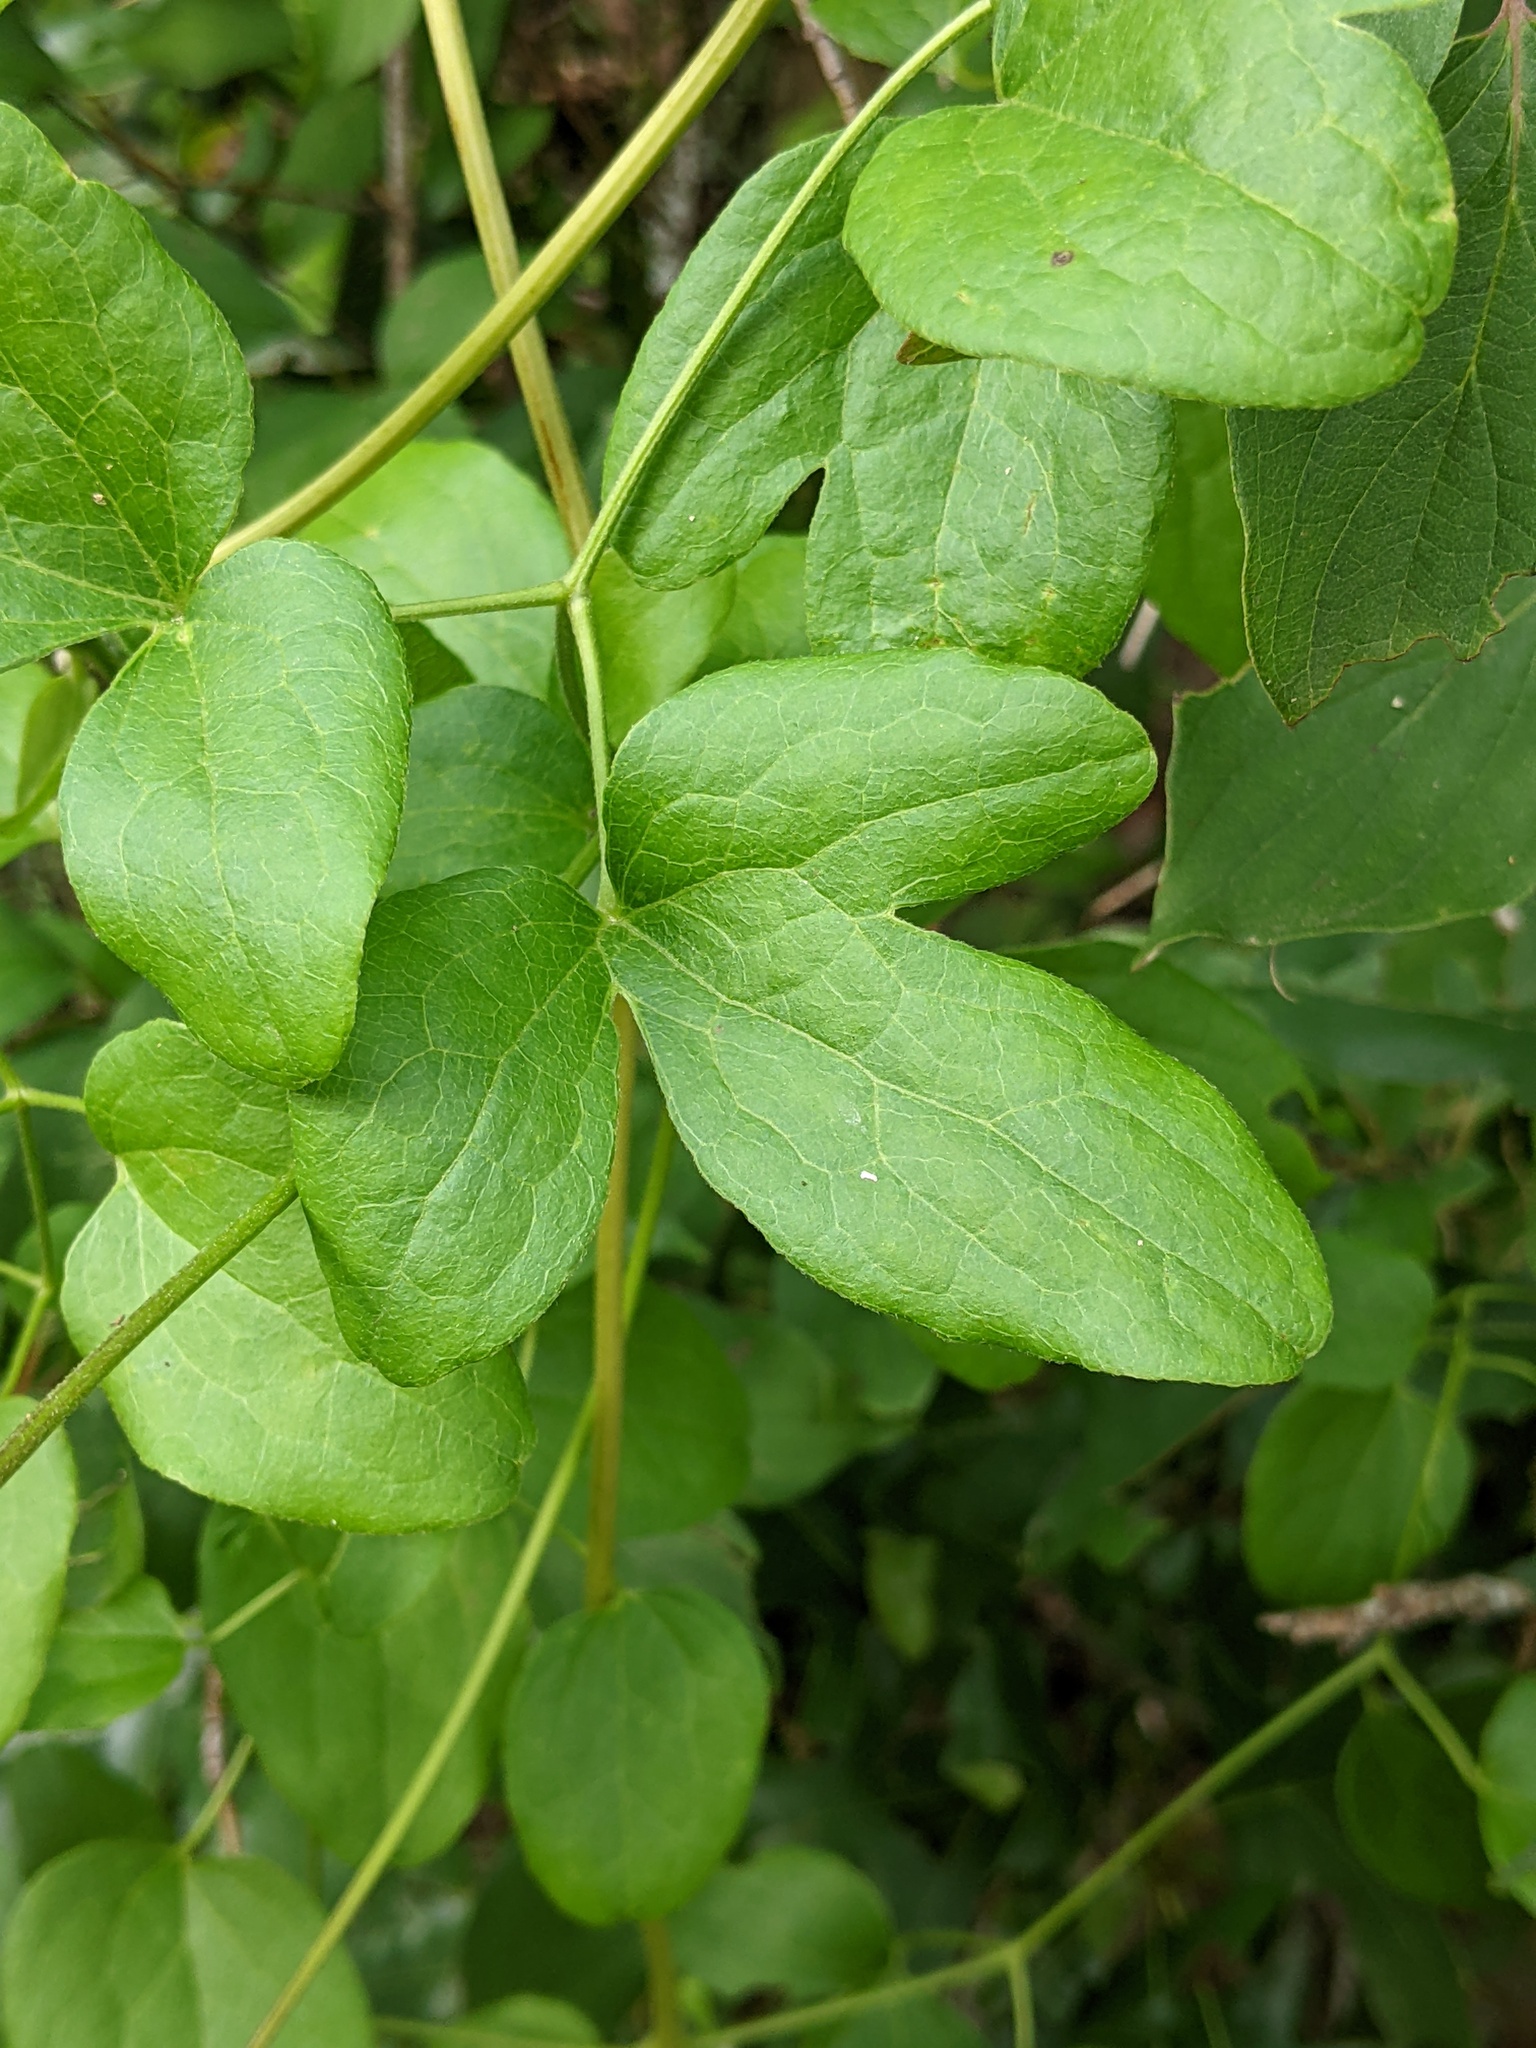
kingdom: Plantae
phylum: Tracheophyta
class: Magnoliopsida
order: Ranunculales
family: Ranunculaceae
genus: Clematis
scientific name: Clematis pitcheri
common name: Bellflower clematis
